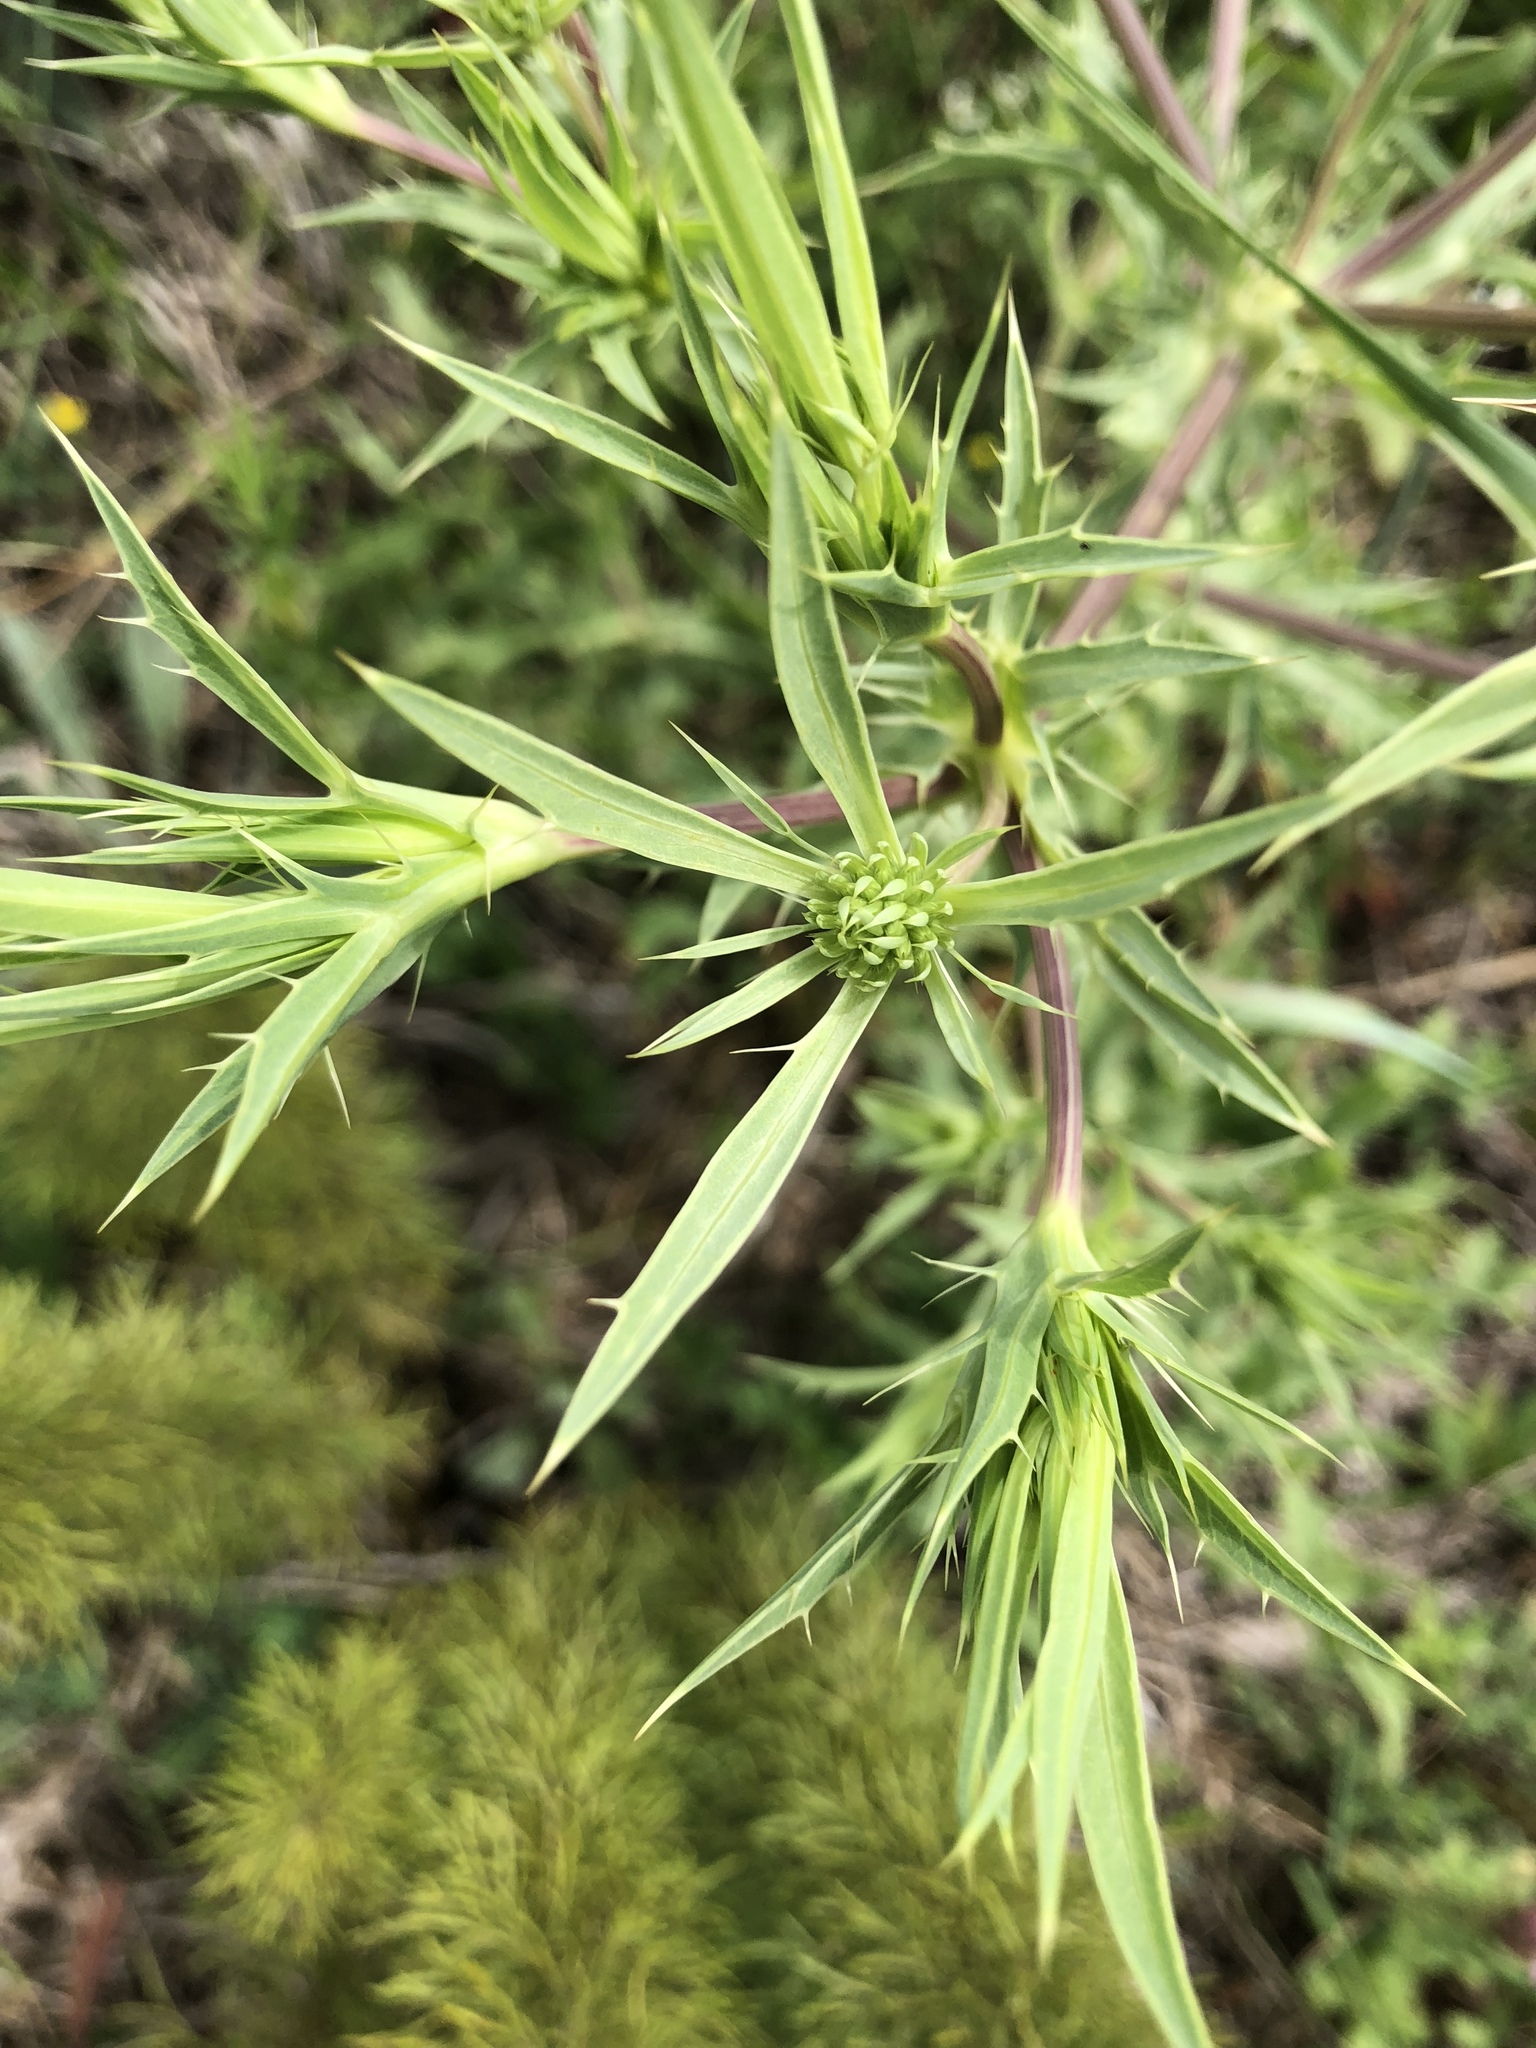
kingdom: Plantae
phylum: Tracheophyta
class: Magnoliopsida
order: Apiales
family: Apiaceae
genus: Eryngium
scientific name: Eryngium campestre
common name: Field eryngo
